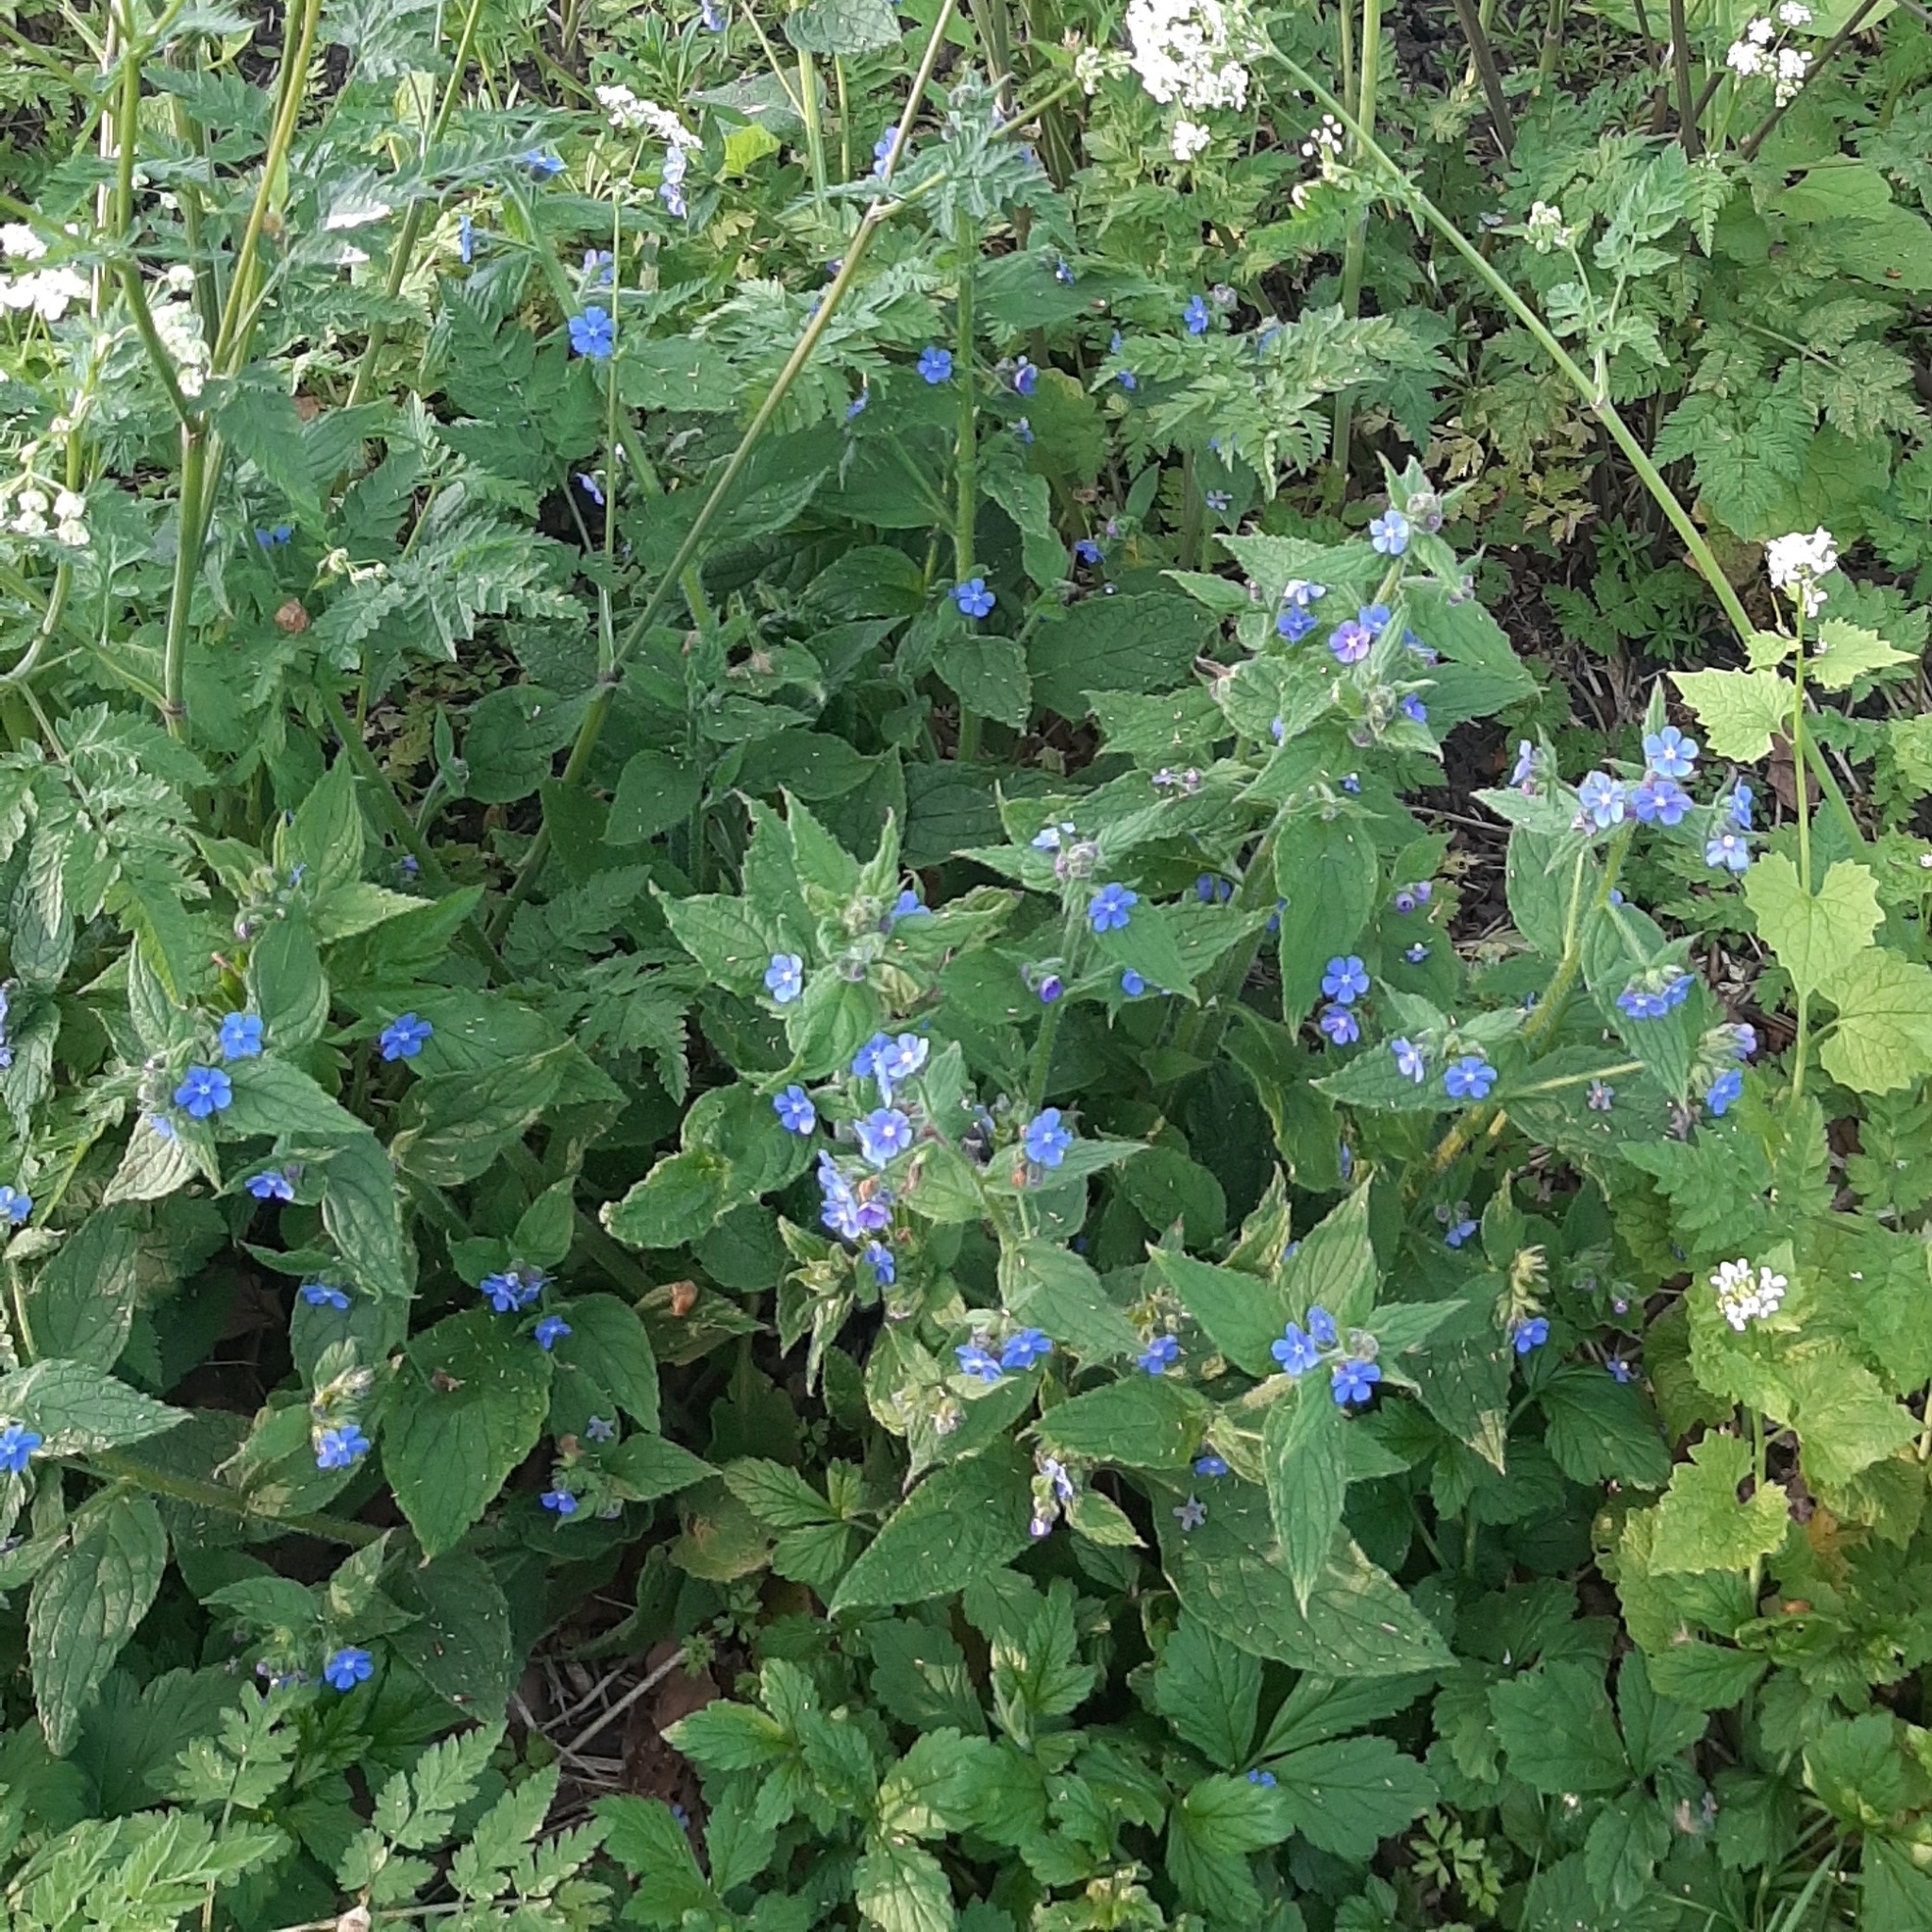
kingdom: Plantae
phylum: Tracheophyta
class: Magnoliopsida
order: Boraginales
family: Boraginaceae
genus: Pentaglottis
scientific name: Pentaglottis sempervirens
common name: Green alkanet
